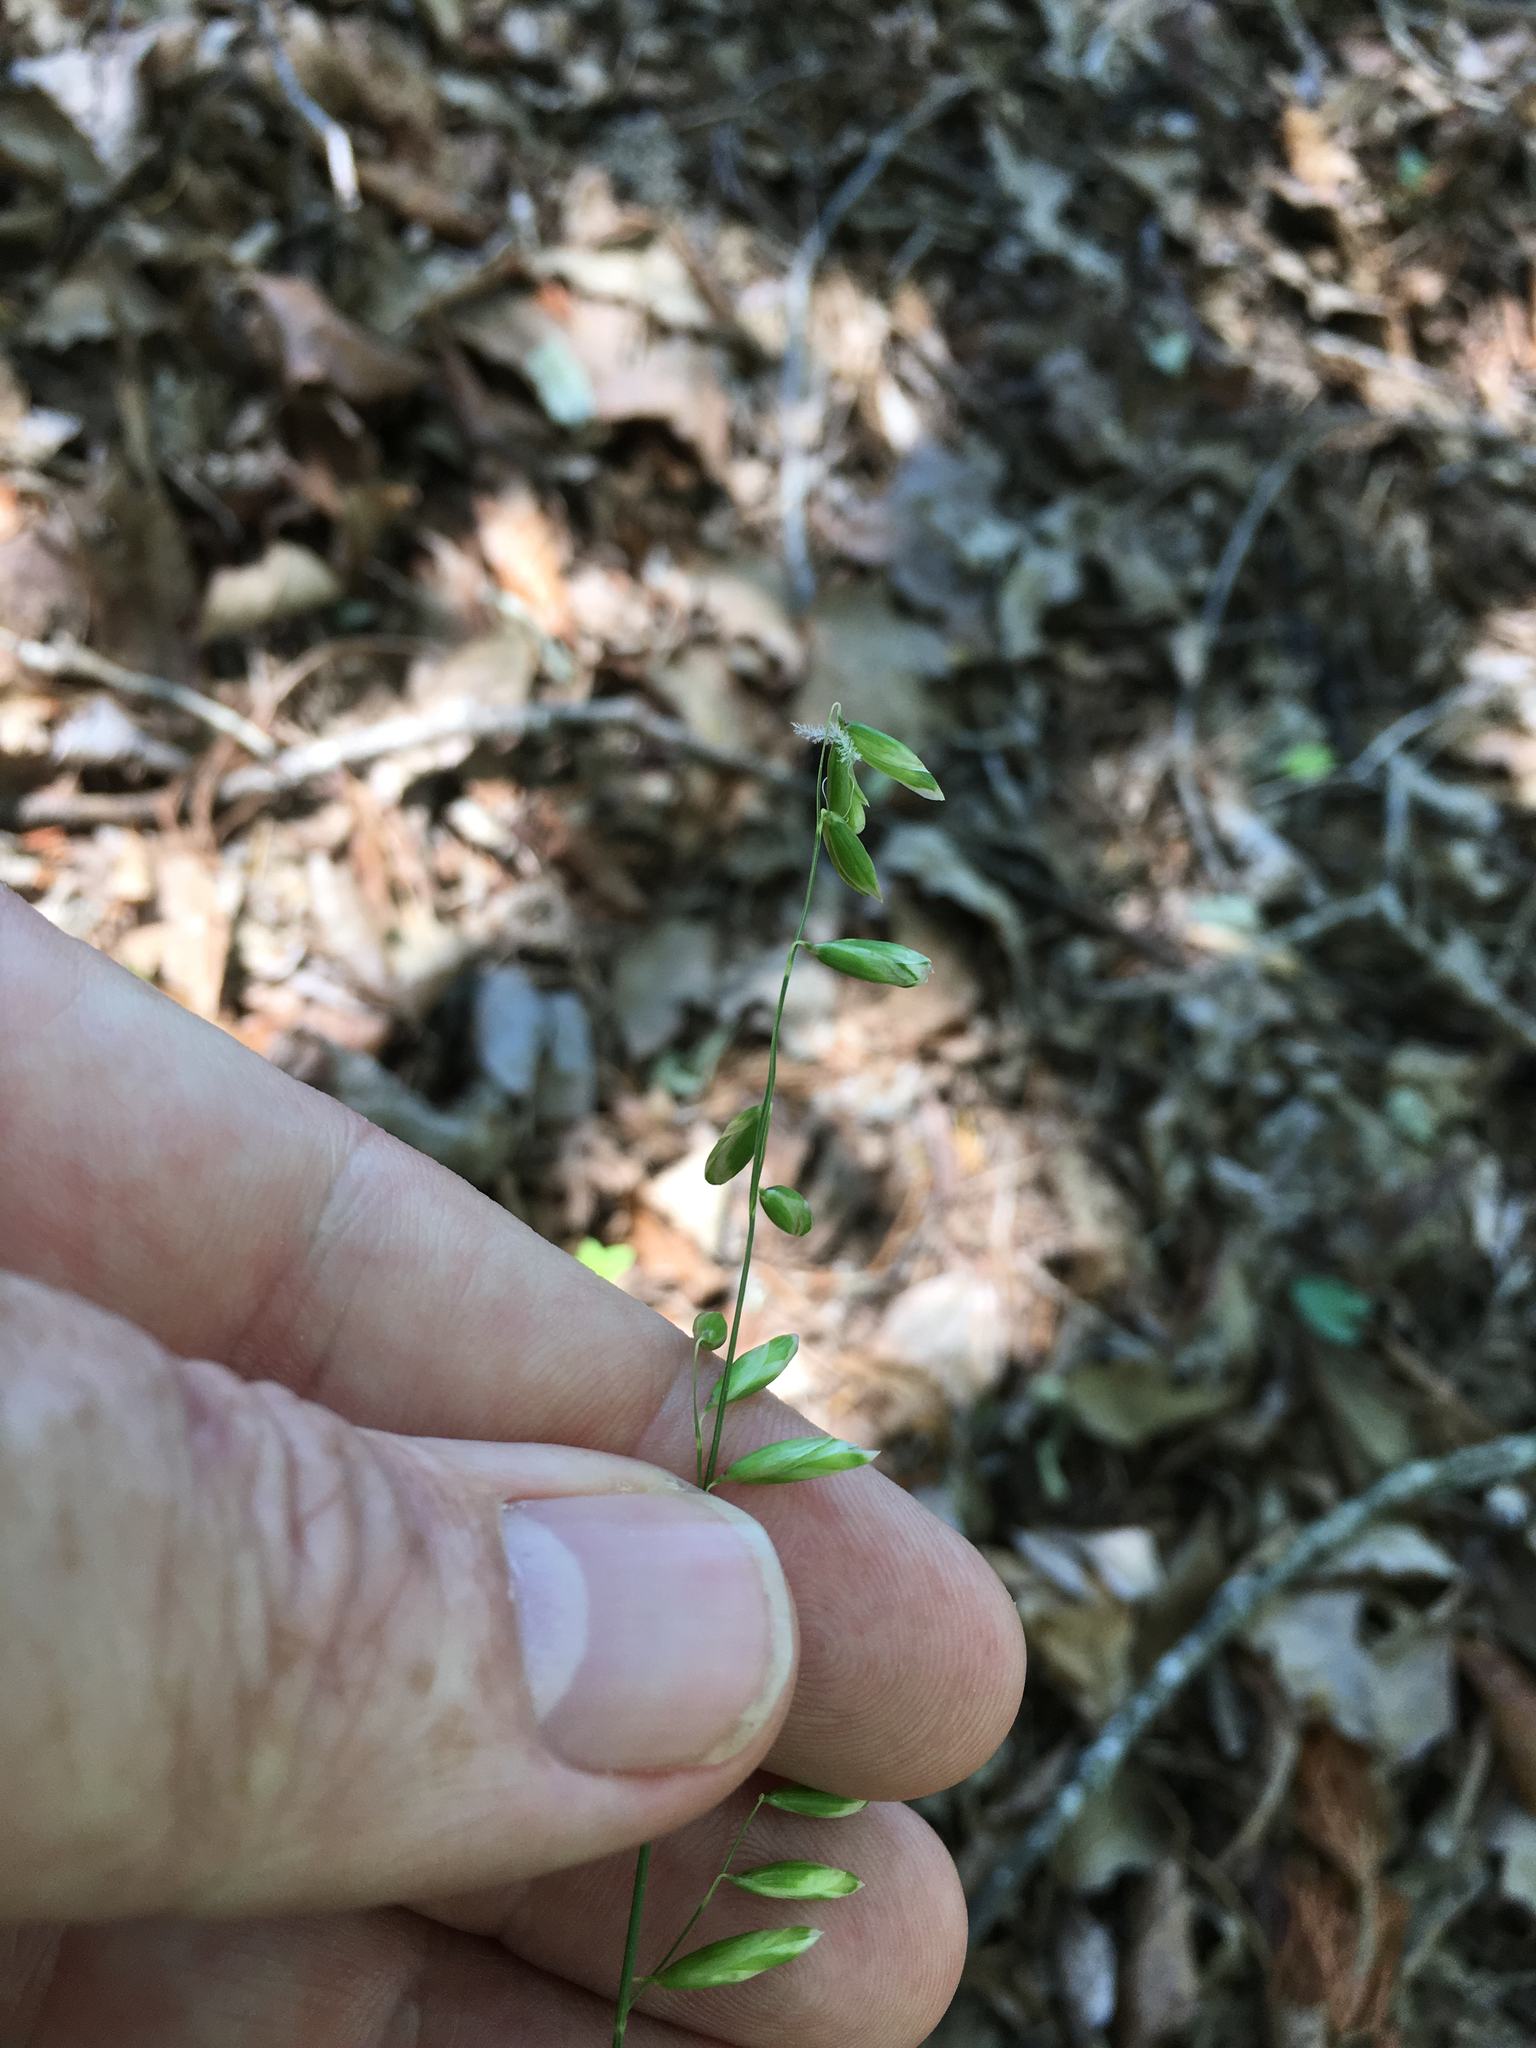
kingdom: Plantae
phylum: Tracheophyta
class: Liliopsida
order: Poales
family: Poaceae
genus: Melica
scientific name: Melica mutica
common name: Two-flower melic
